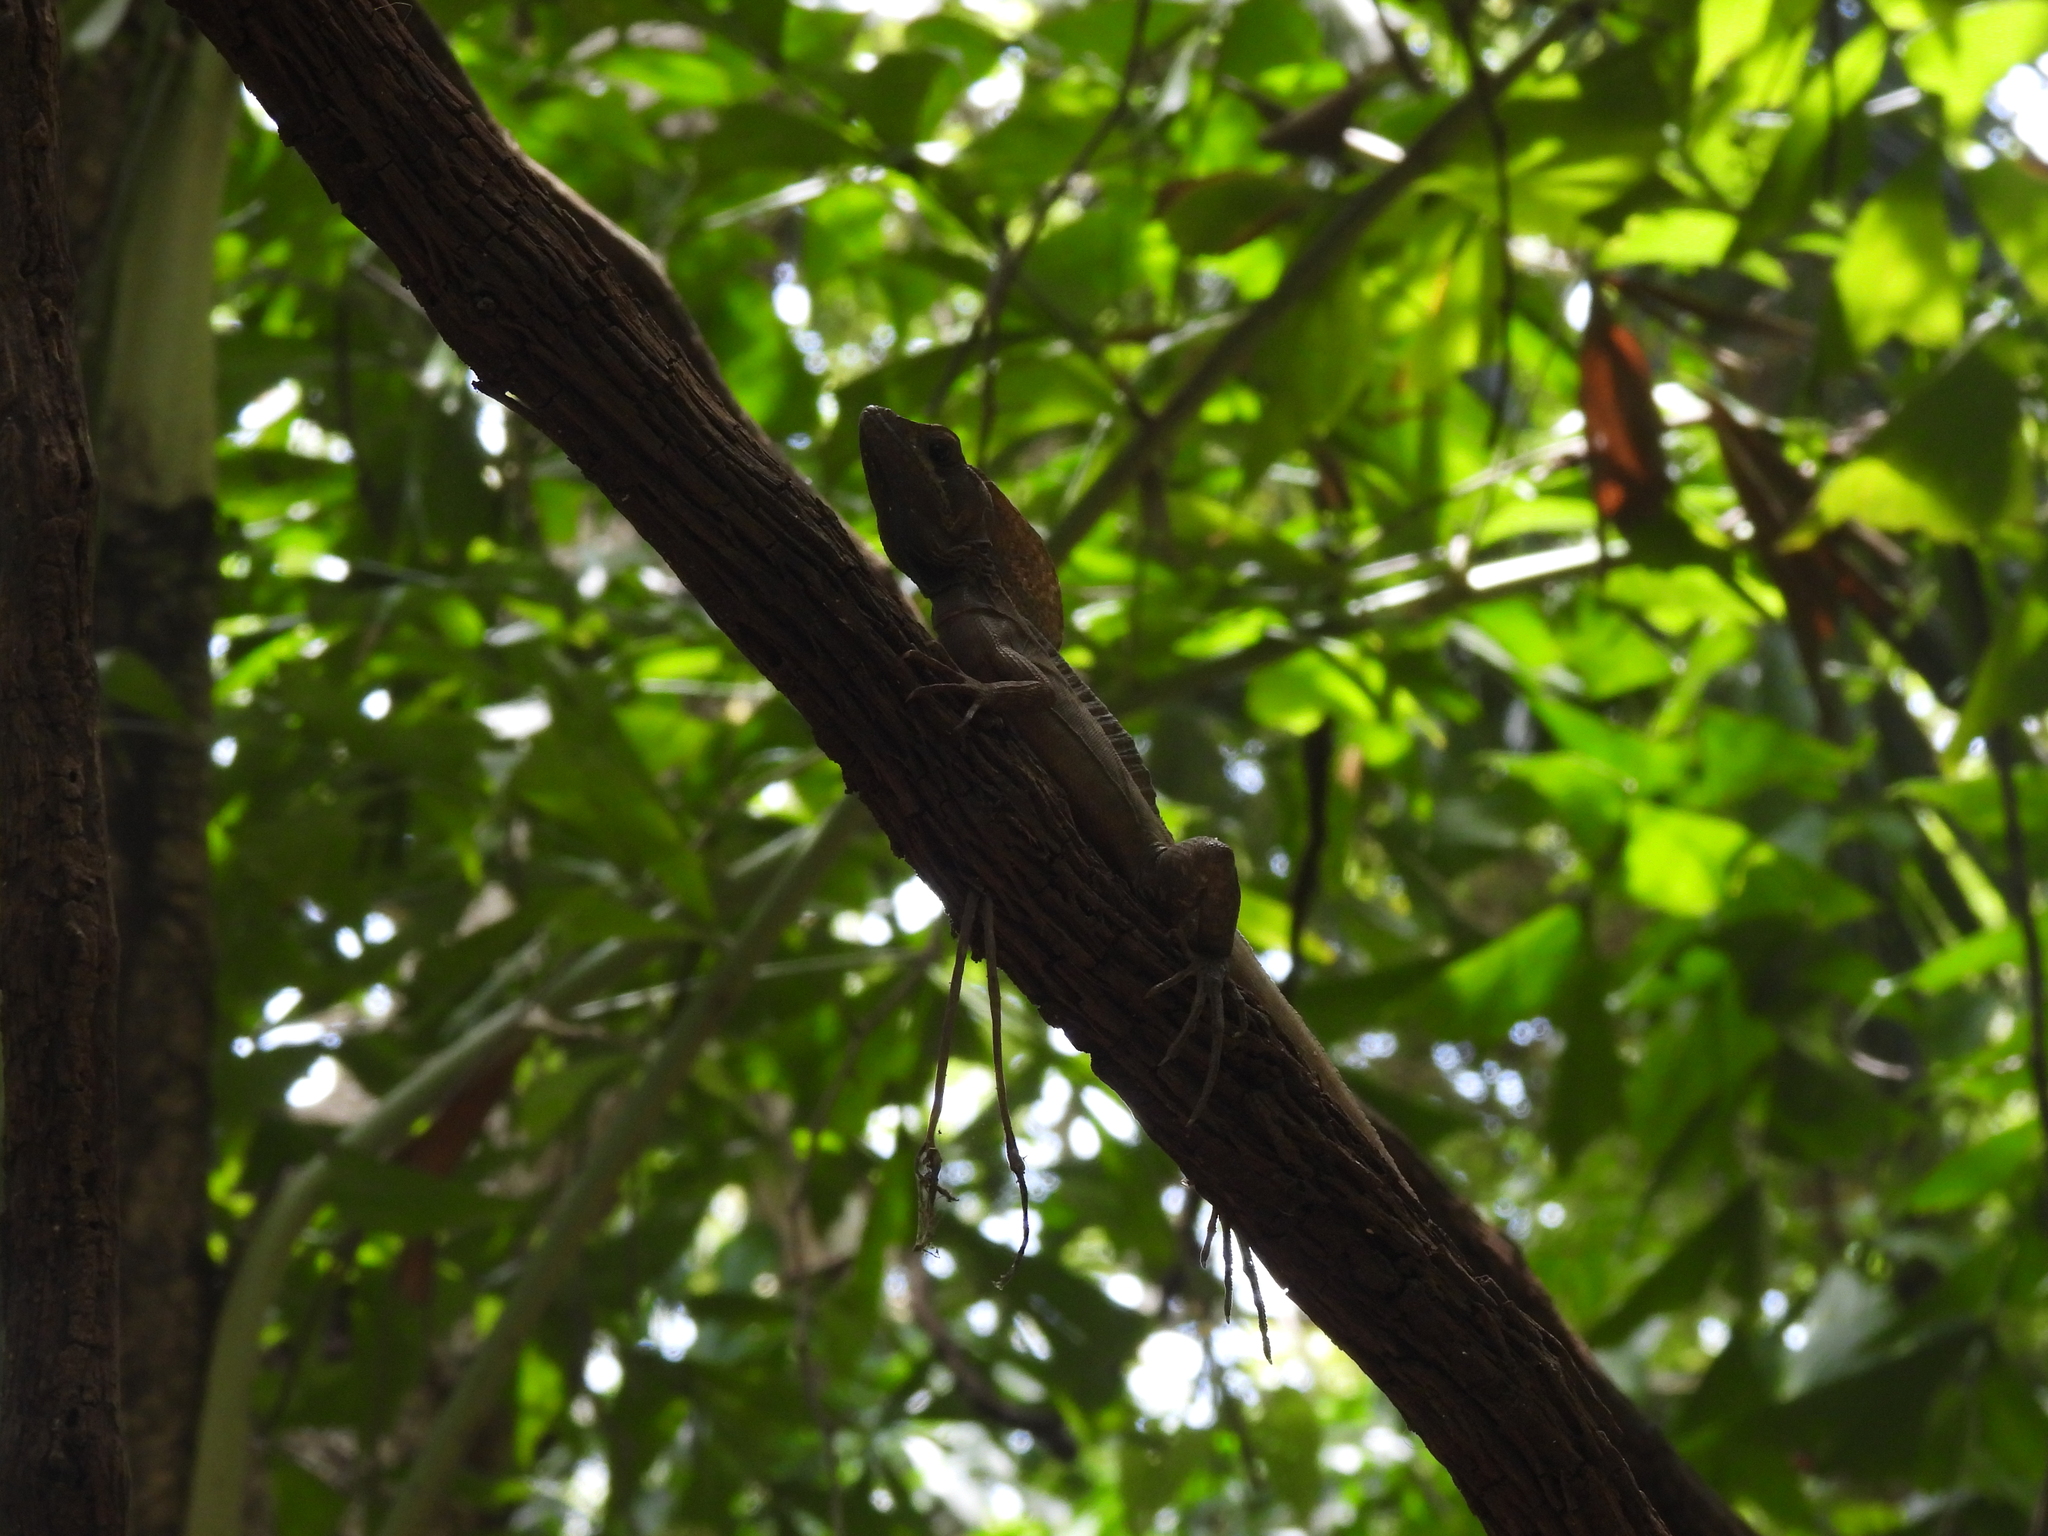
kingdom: Animalia
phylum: Chordata
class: Squamata
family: Corytophanidae
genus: Basiliscus
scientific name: Basiliscus vittatus
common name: Brown basilisk
